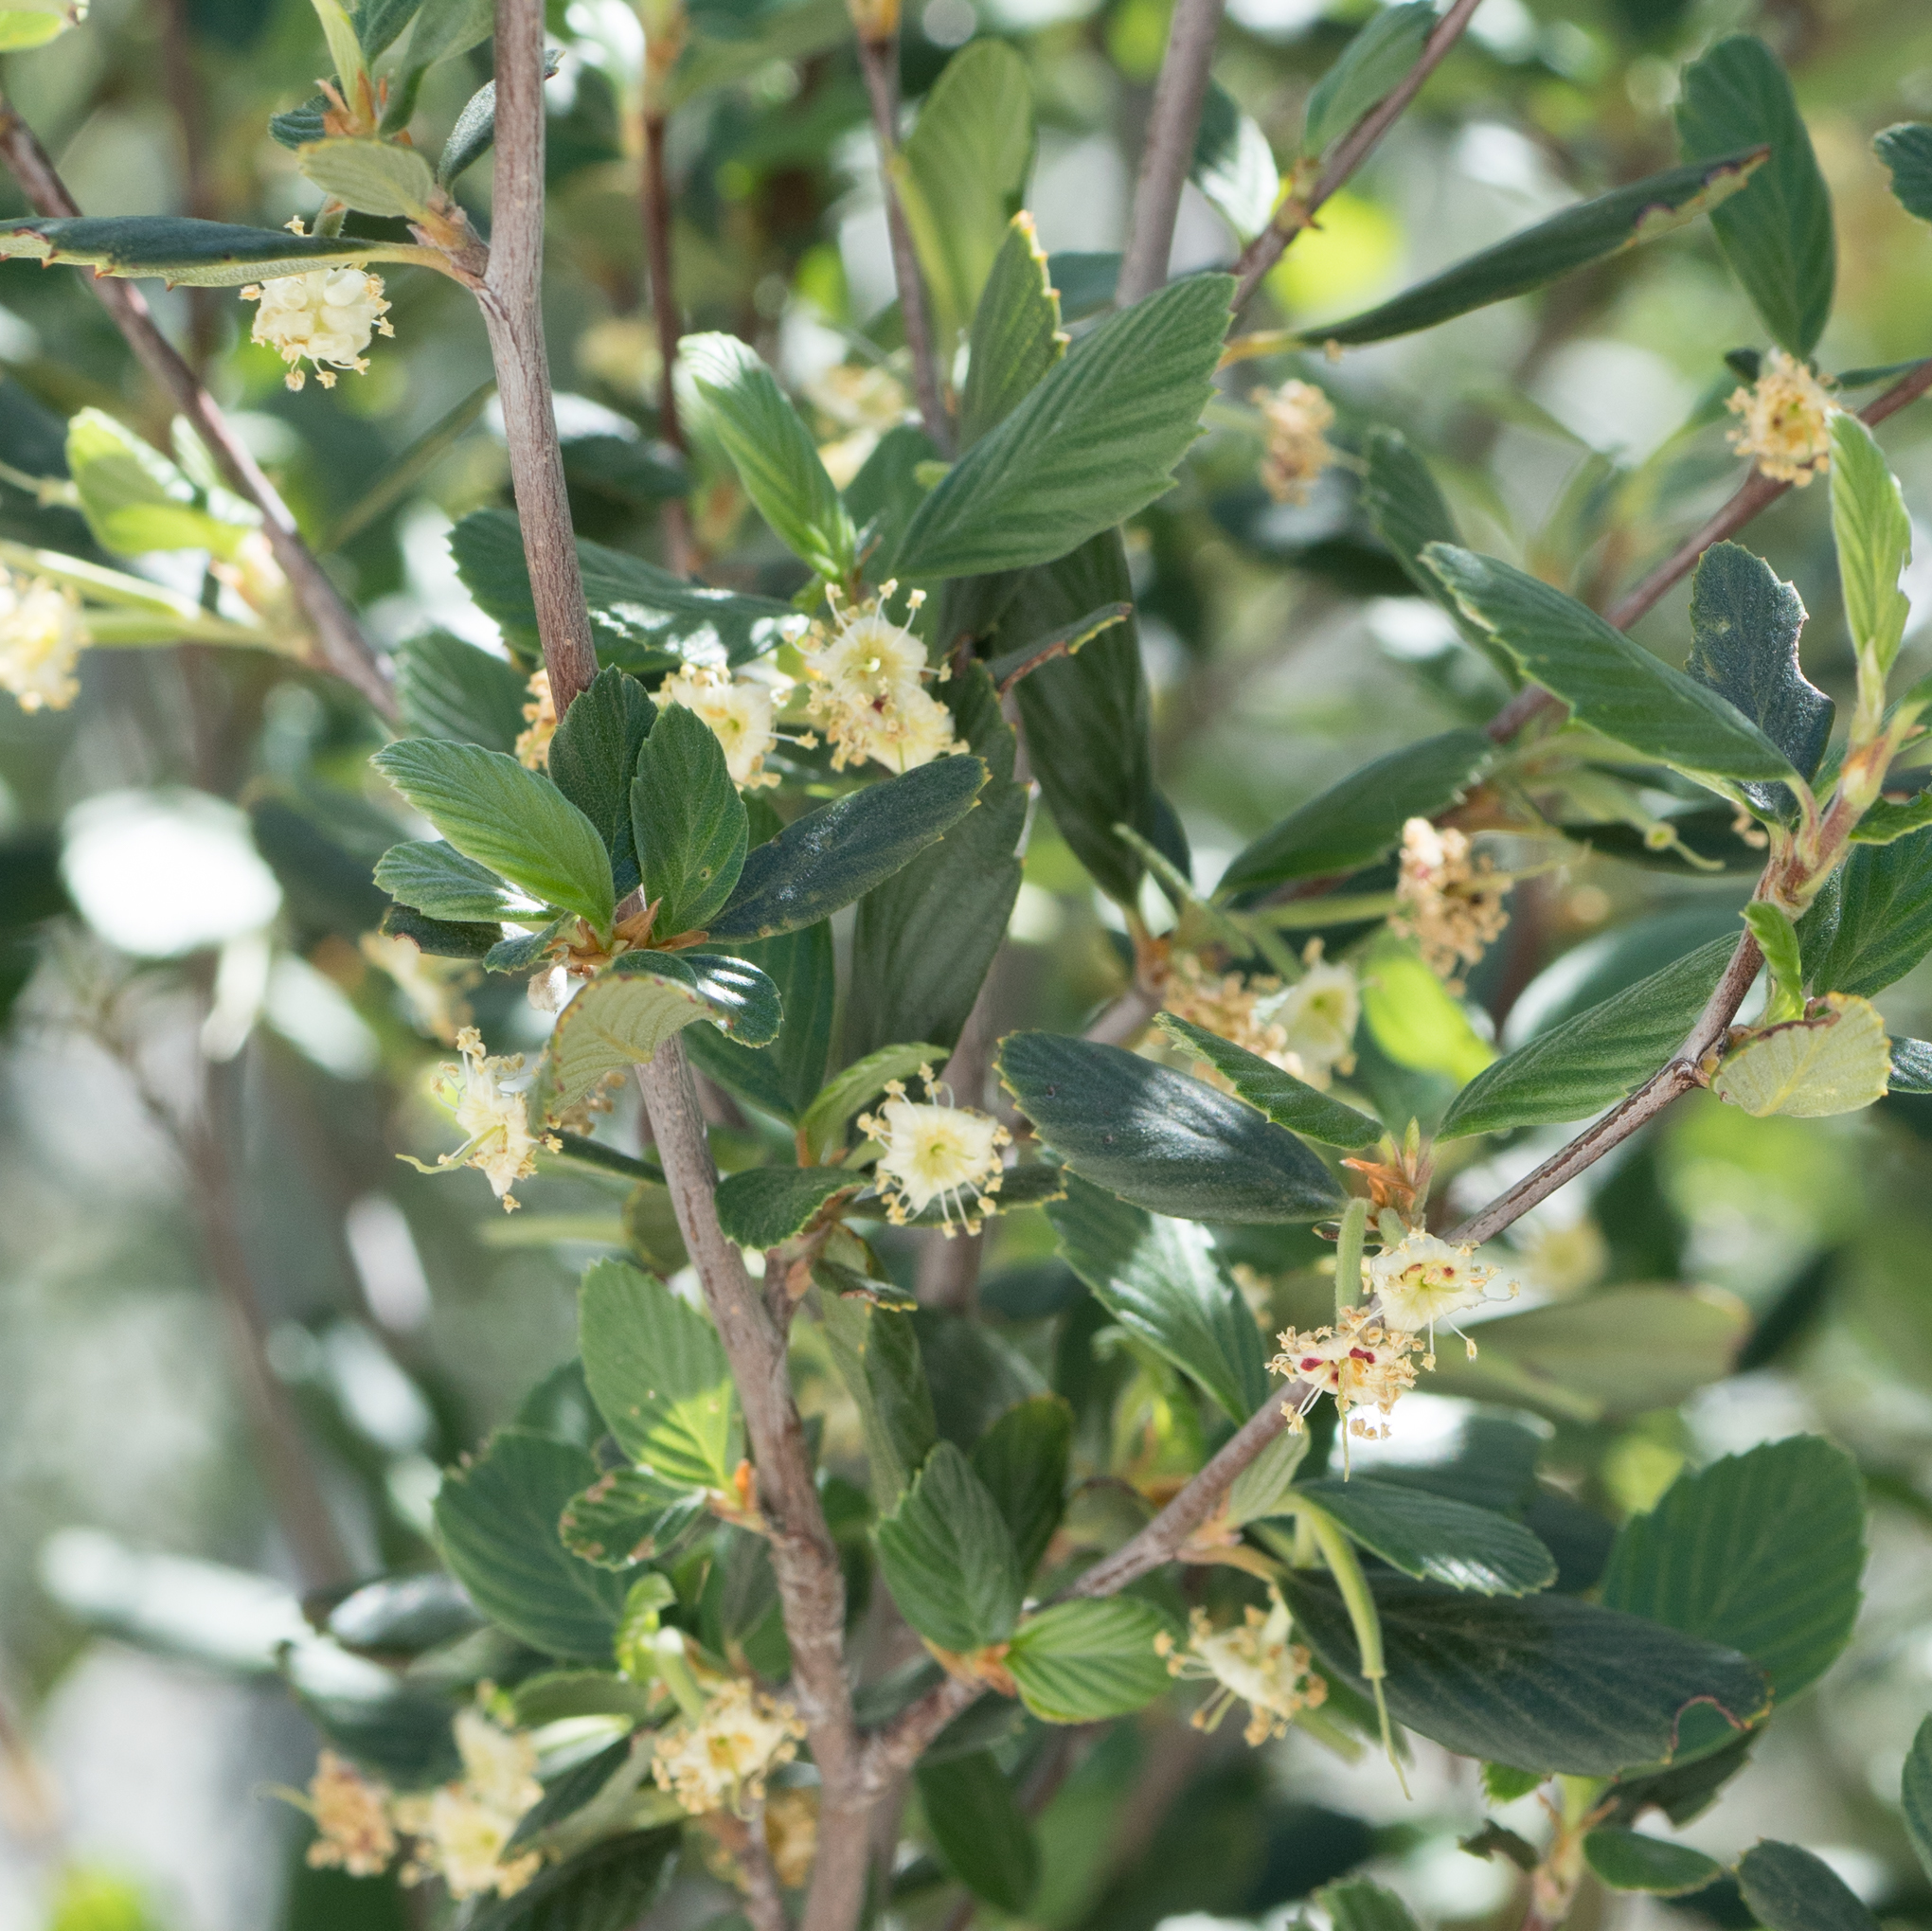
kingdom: Plantae
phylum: Tracheophyta
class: Magnoliopsida
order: Rosales
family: Rosaceae
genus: Cercocarpus
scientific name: Cercocarpus betuloides
